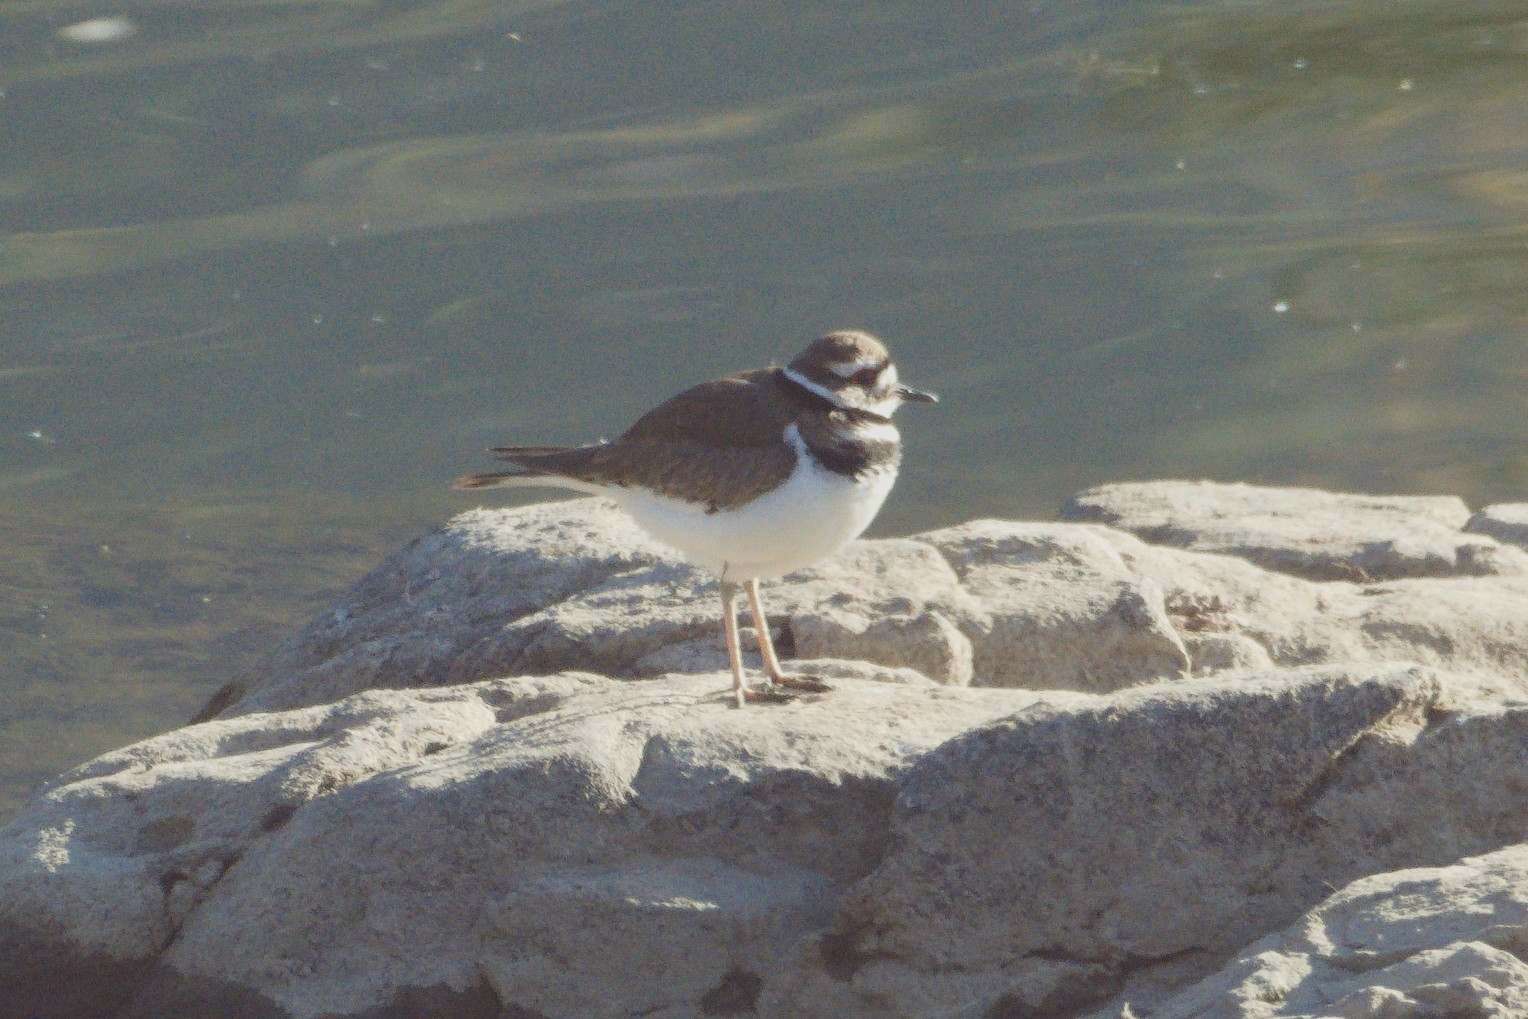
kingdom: Animalia
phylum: Chordata
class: Aves
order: Charadriiformes
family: Charadriidae
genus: Charadrius
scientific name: Charadrius vociferus
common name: Killdeer
